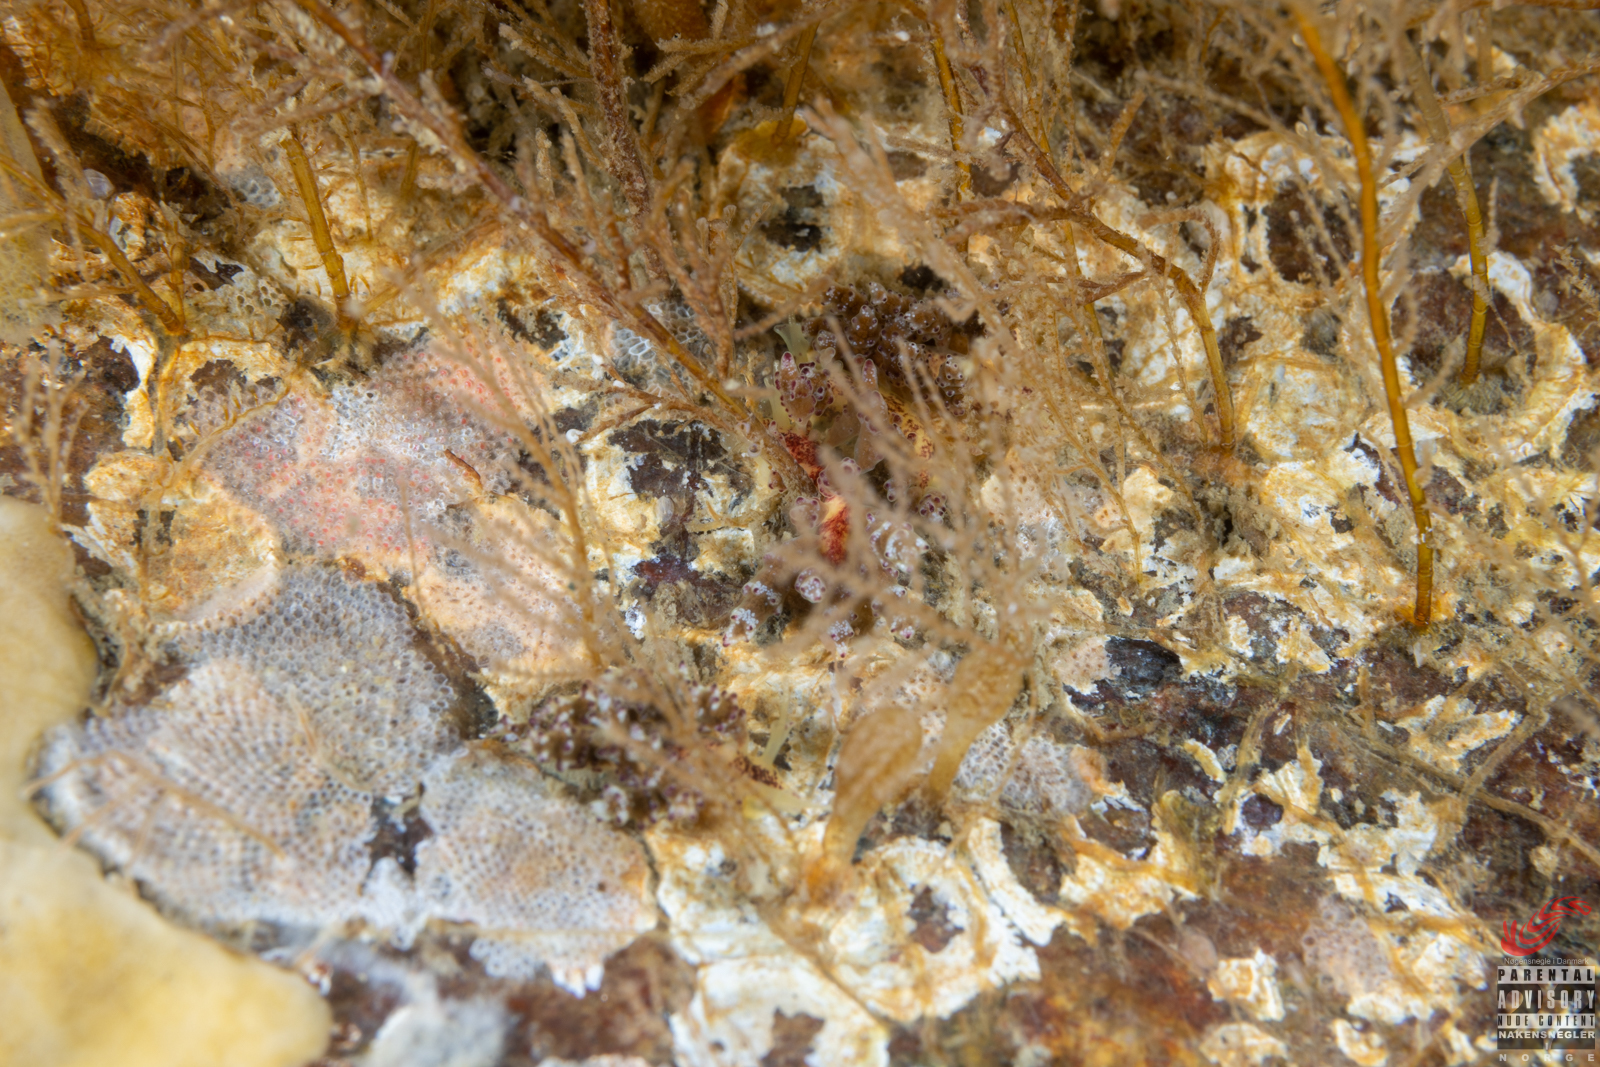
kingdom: Animalia
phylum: Mollusca
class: Gastropoda
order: Nudibranchia
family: Dotidae
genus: Doto
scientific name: Doto hydrallmaniae
